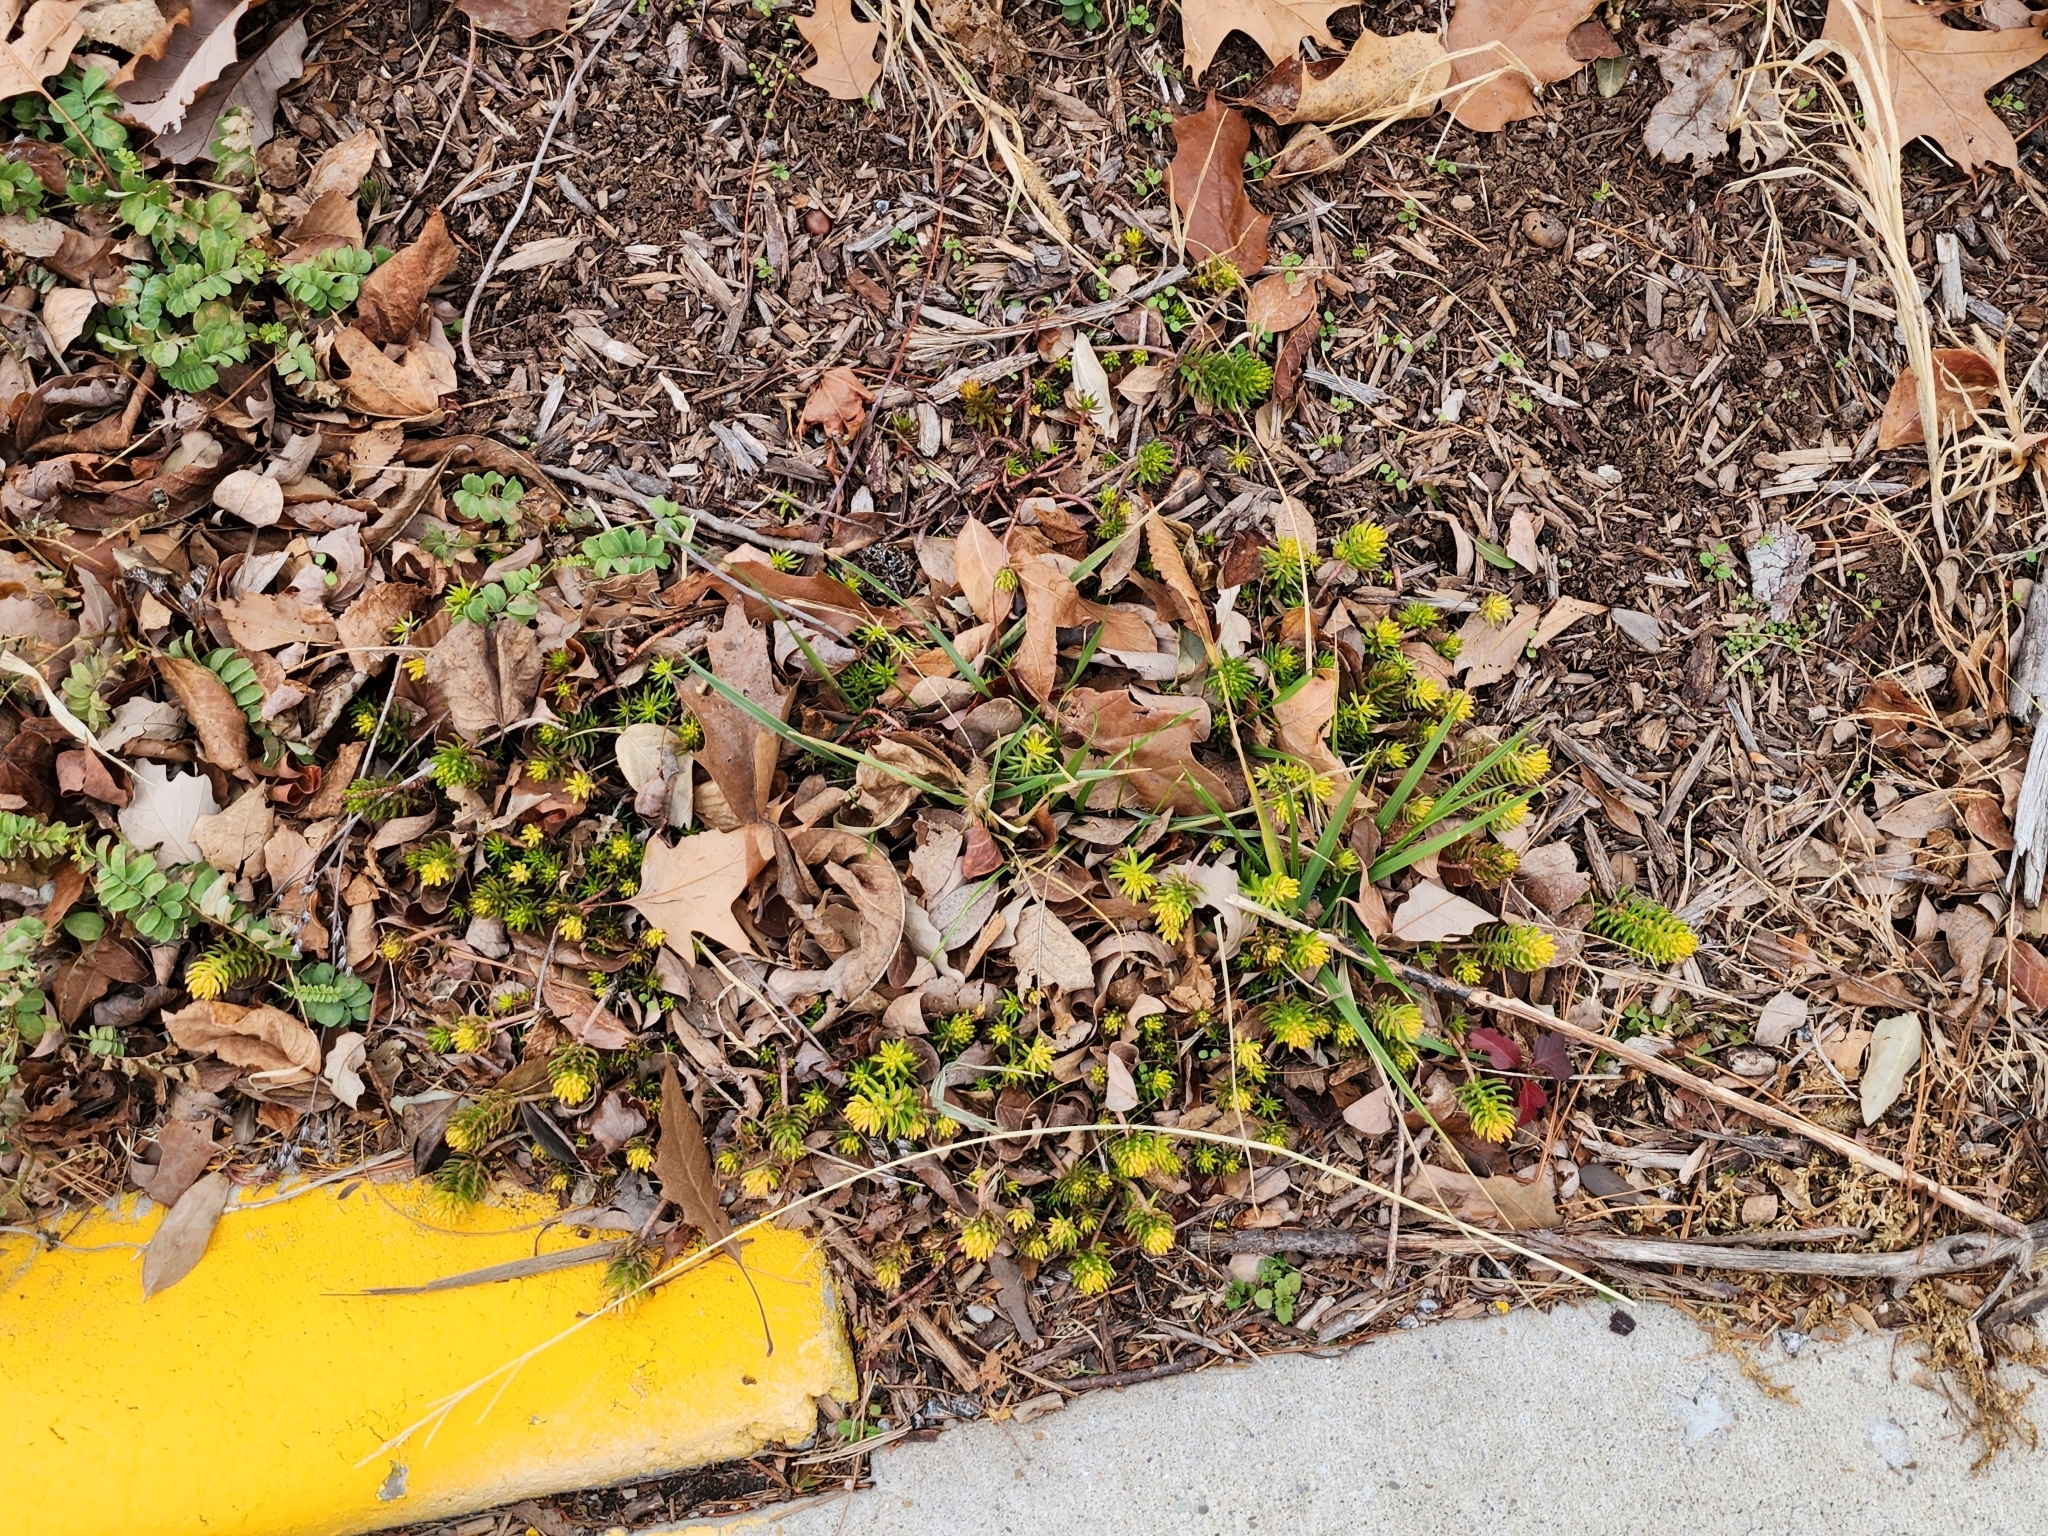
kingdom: Plantae
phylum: Tracheophyta
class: Magnoliopsida
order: Saxifragales
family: Crassulaceae
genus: Petrosedum
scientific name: Petrosedum rupestre
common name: Jenny's stonecrop
